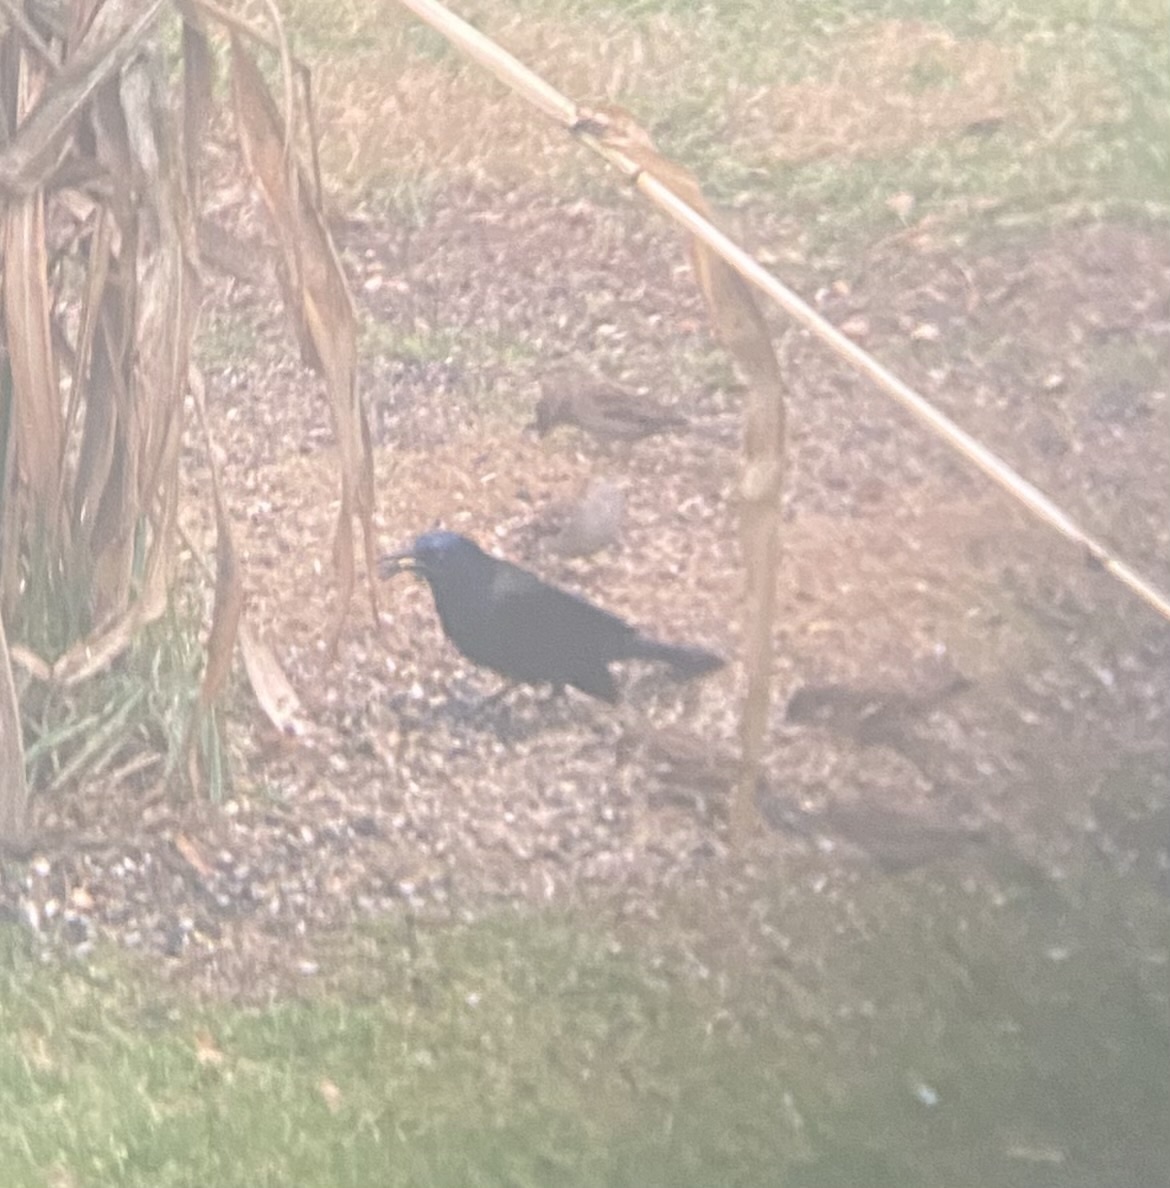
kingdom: Animalia
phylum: Chordata
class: Aves
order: Passeriformes
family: Icteridae
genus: Quiscalus
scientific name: Quiscalus quiscula
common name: Common grackle
